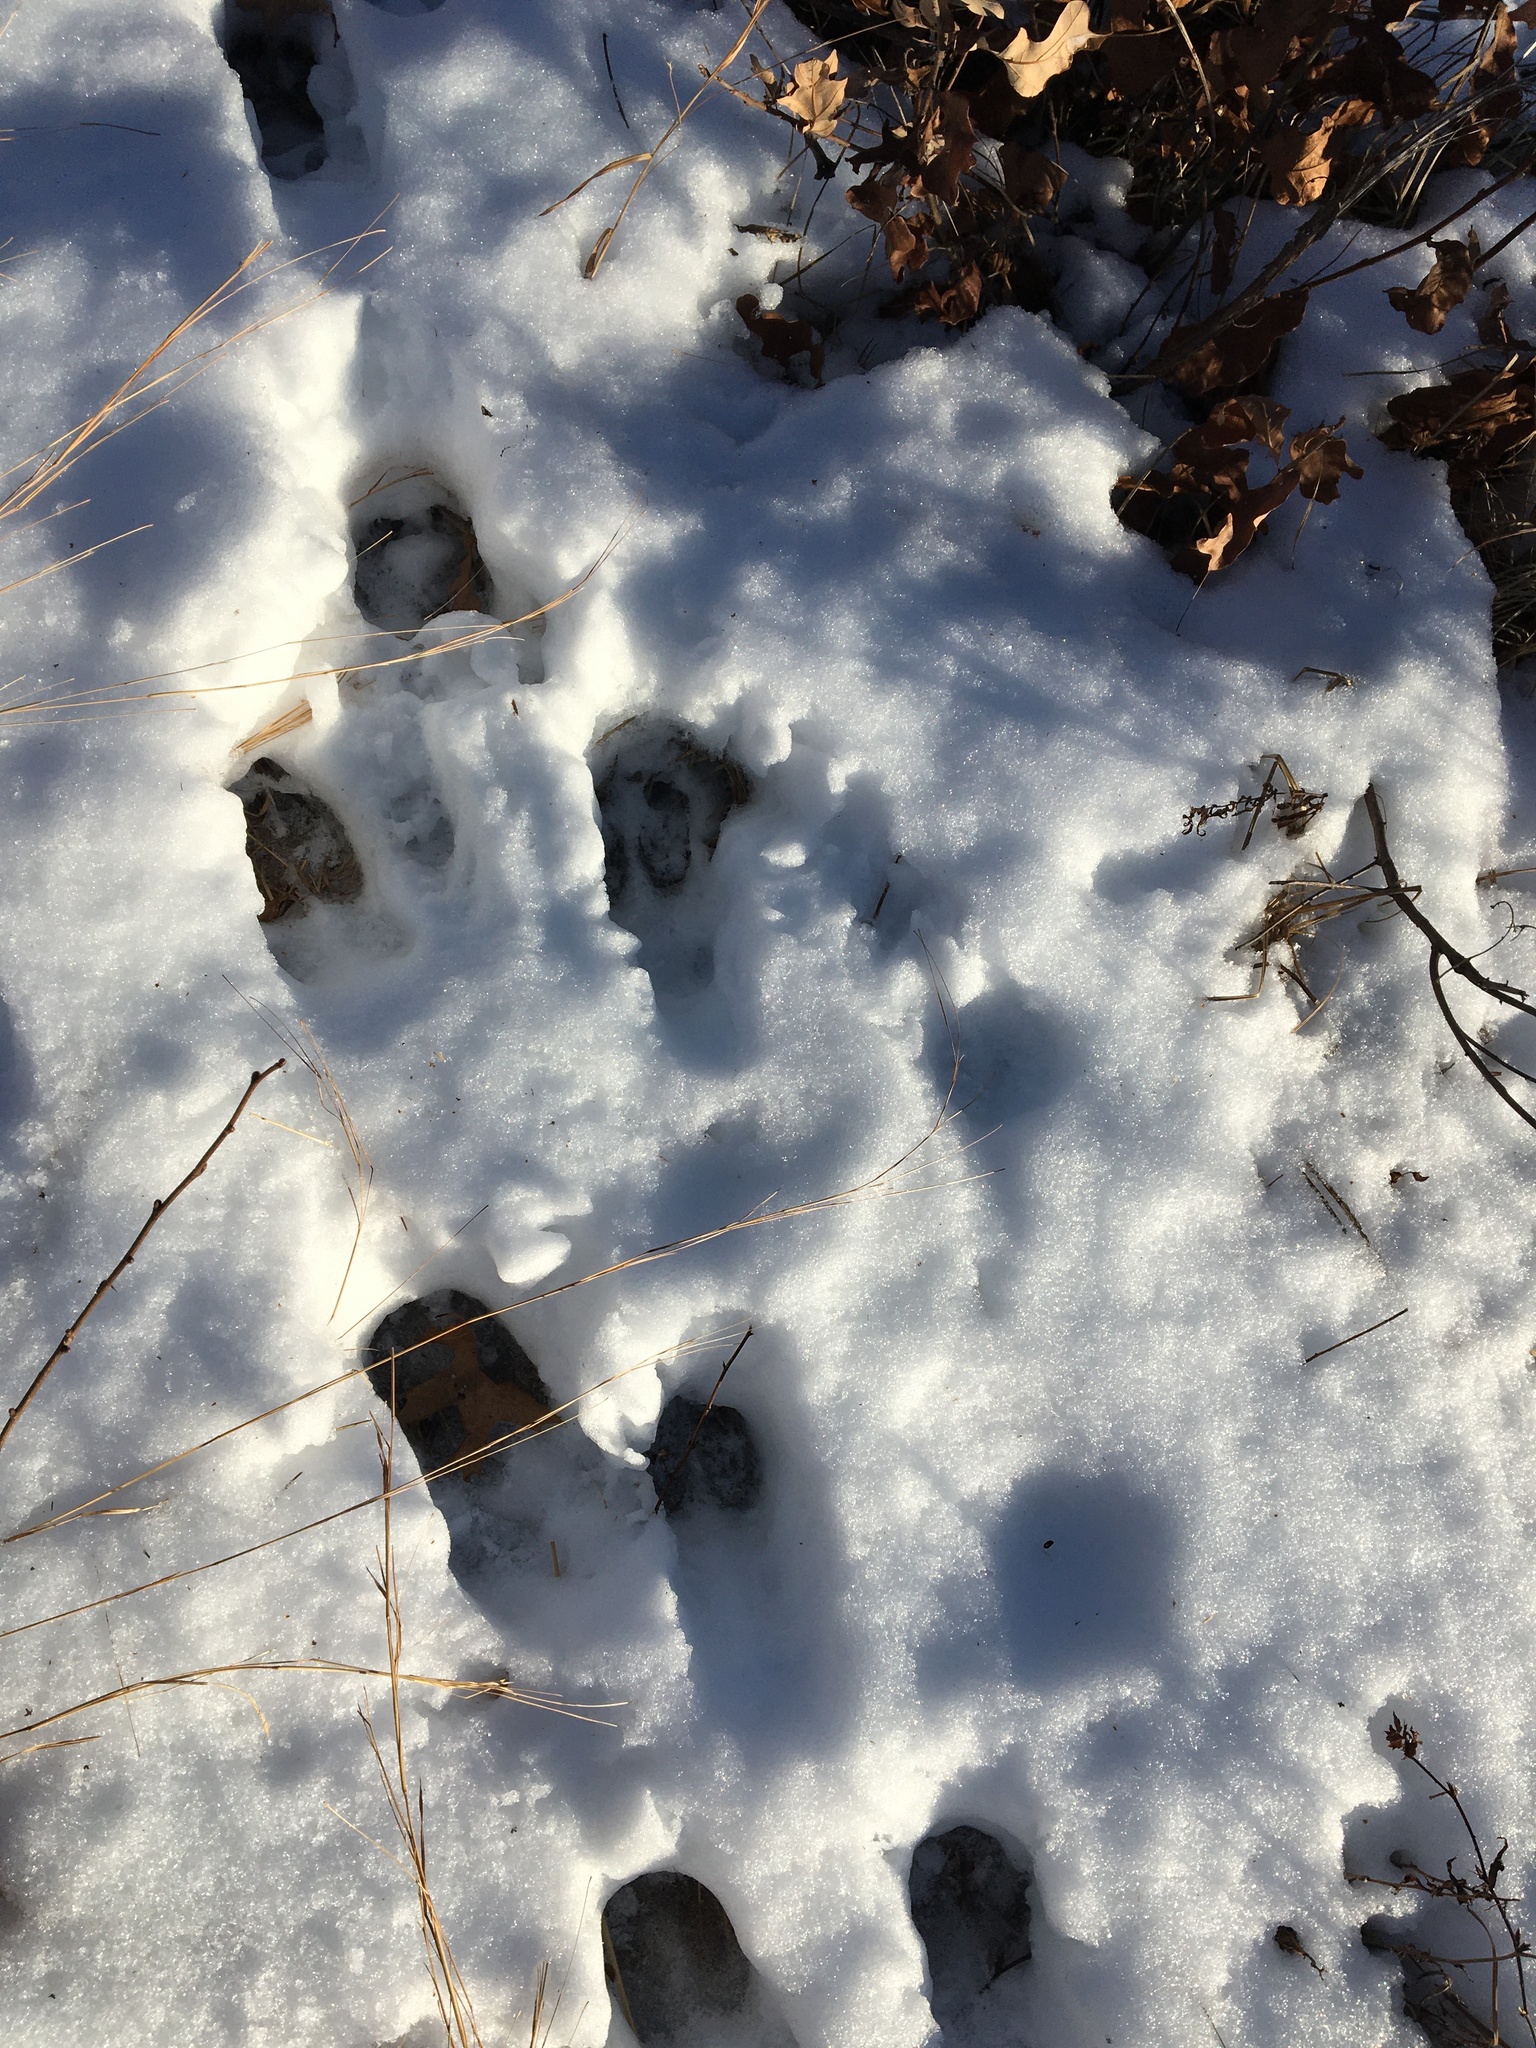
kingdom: Animalia
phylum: Chordata
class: Mammalia
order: Artiodactyla
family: Cervidae
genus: Odocoileus
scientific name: Odocoileus virginianus
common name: White-tailed deer
